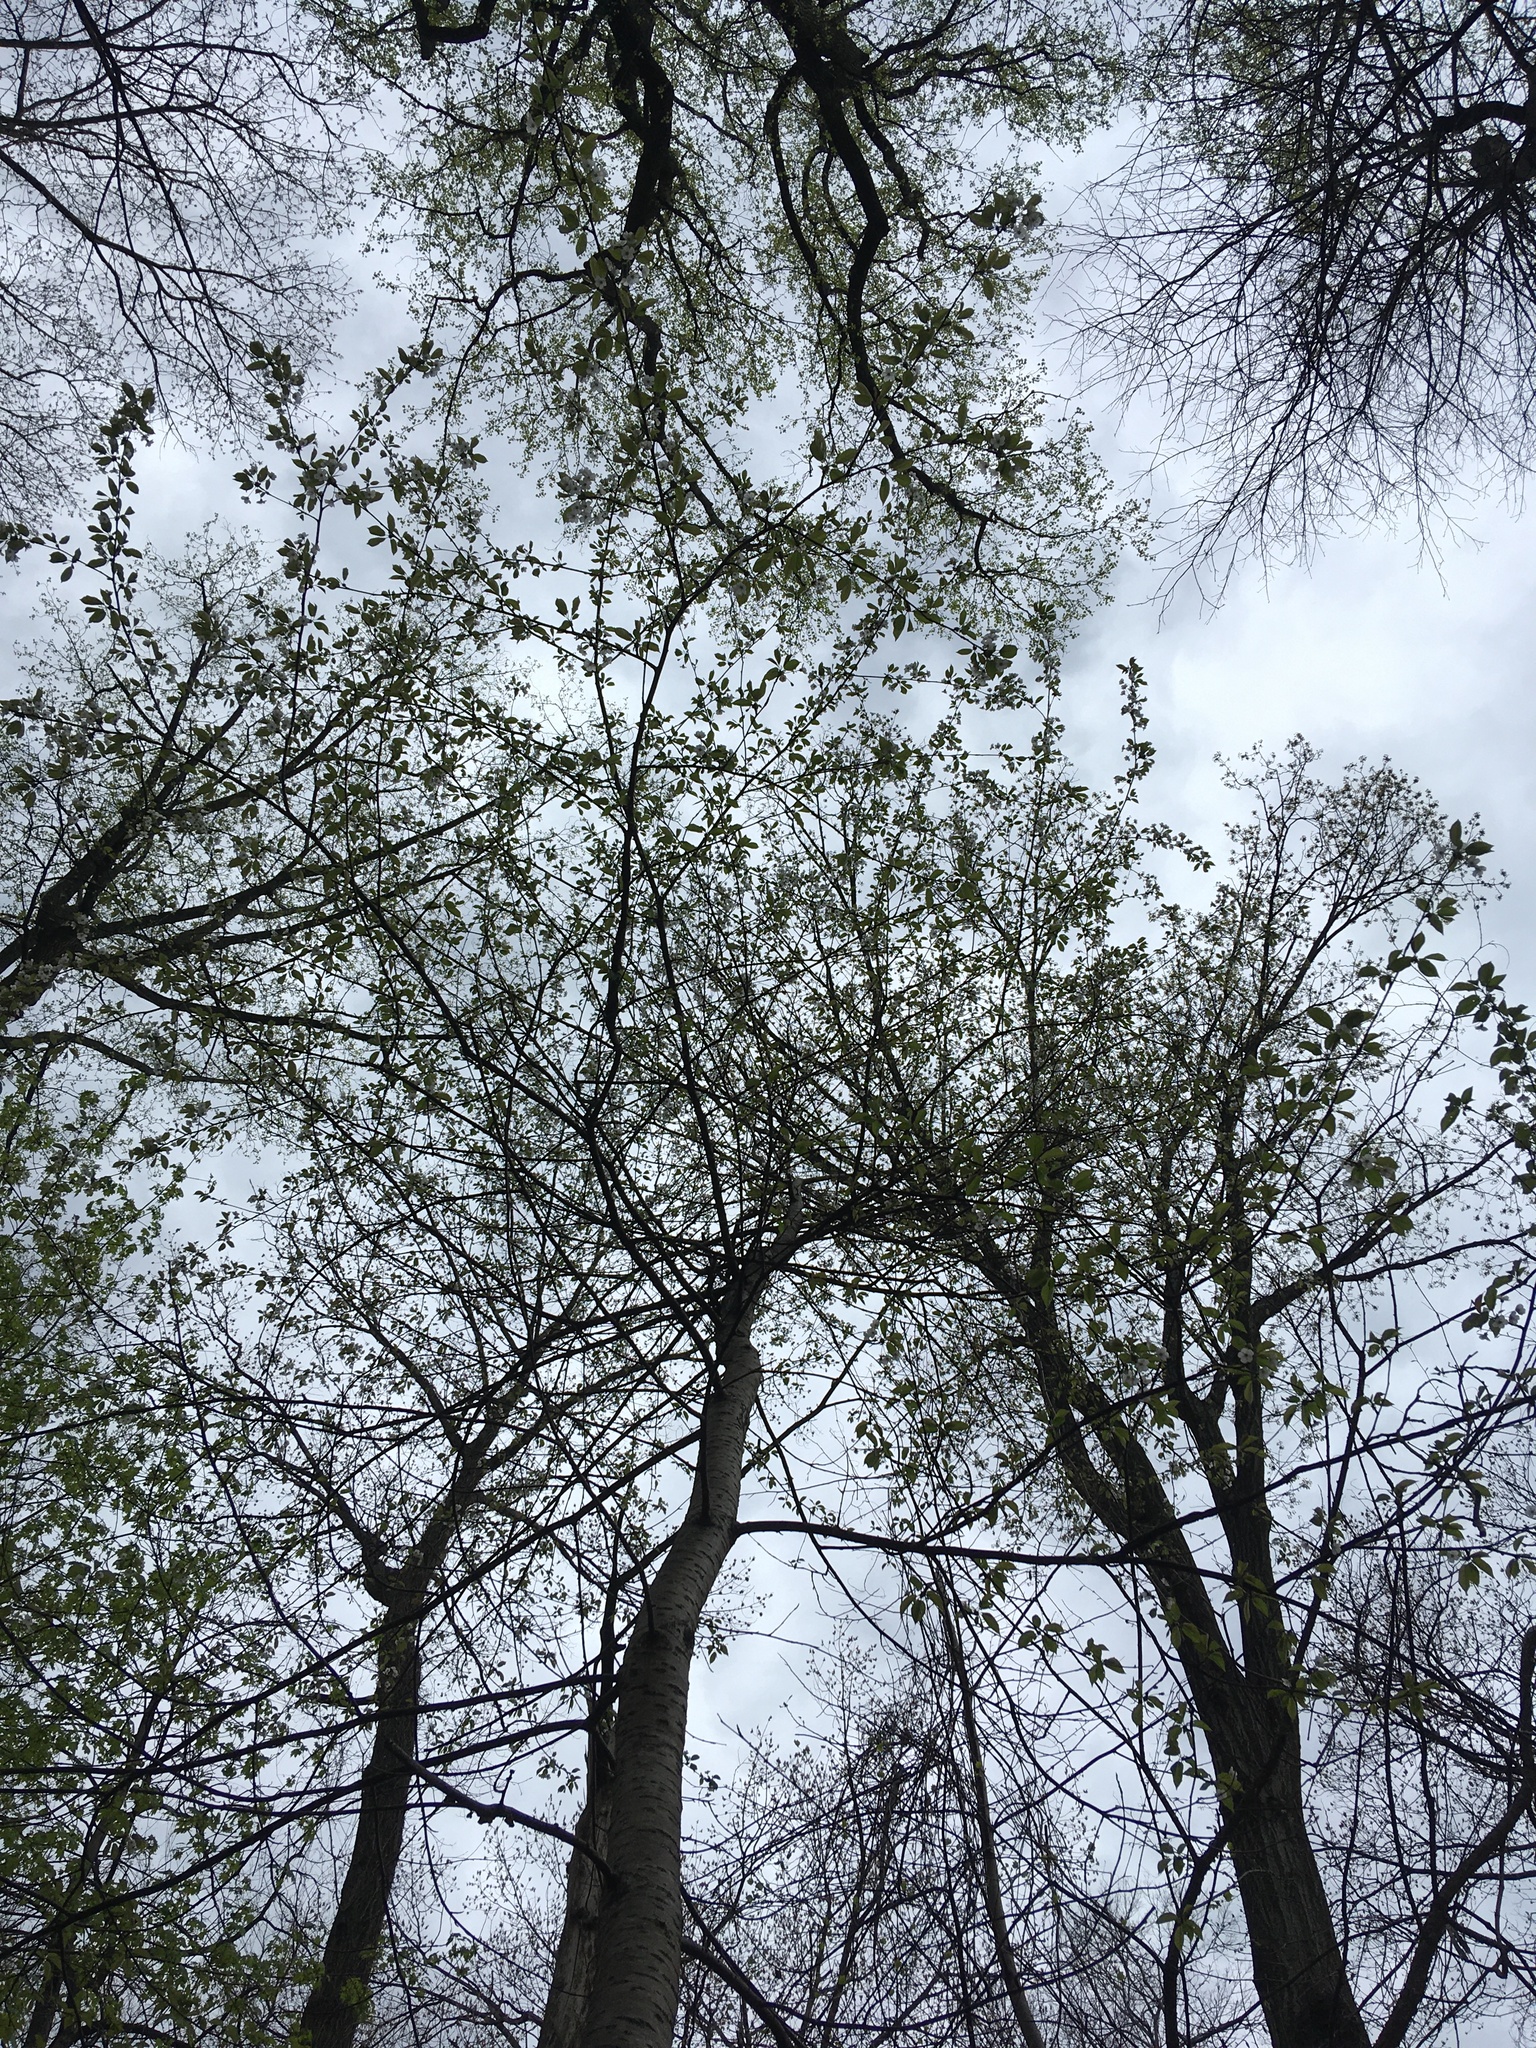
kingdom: Plantae
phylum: Tracheophyta
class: Magnoliopsida
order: Rosales
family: Rosaceae
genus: Prunus
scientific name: Prunus avium
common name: Sweet cherry
